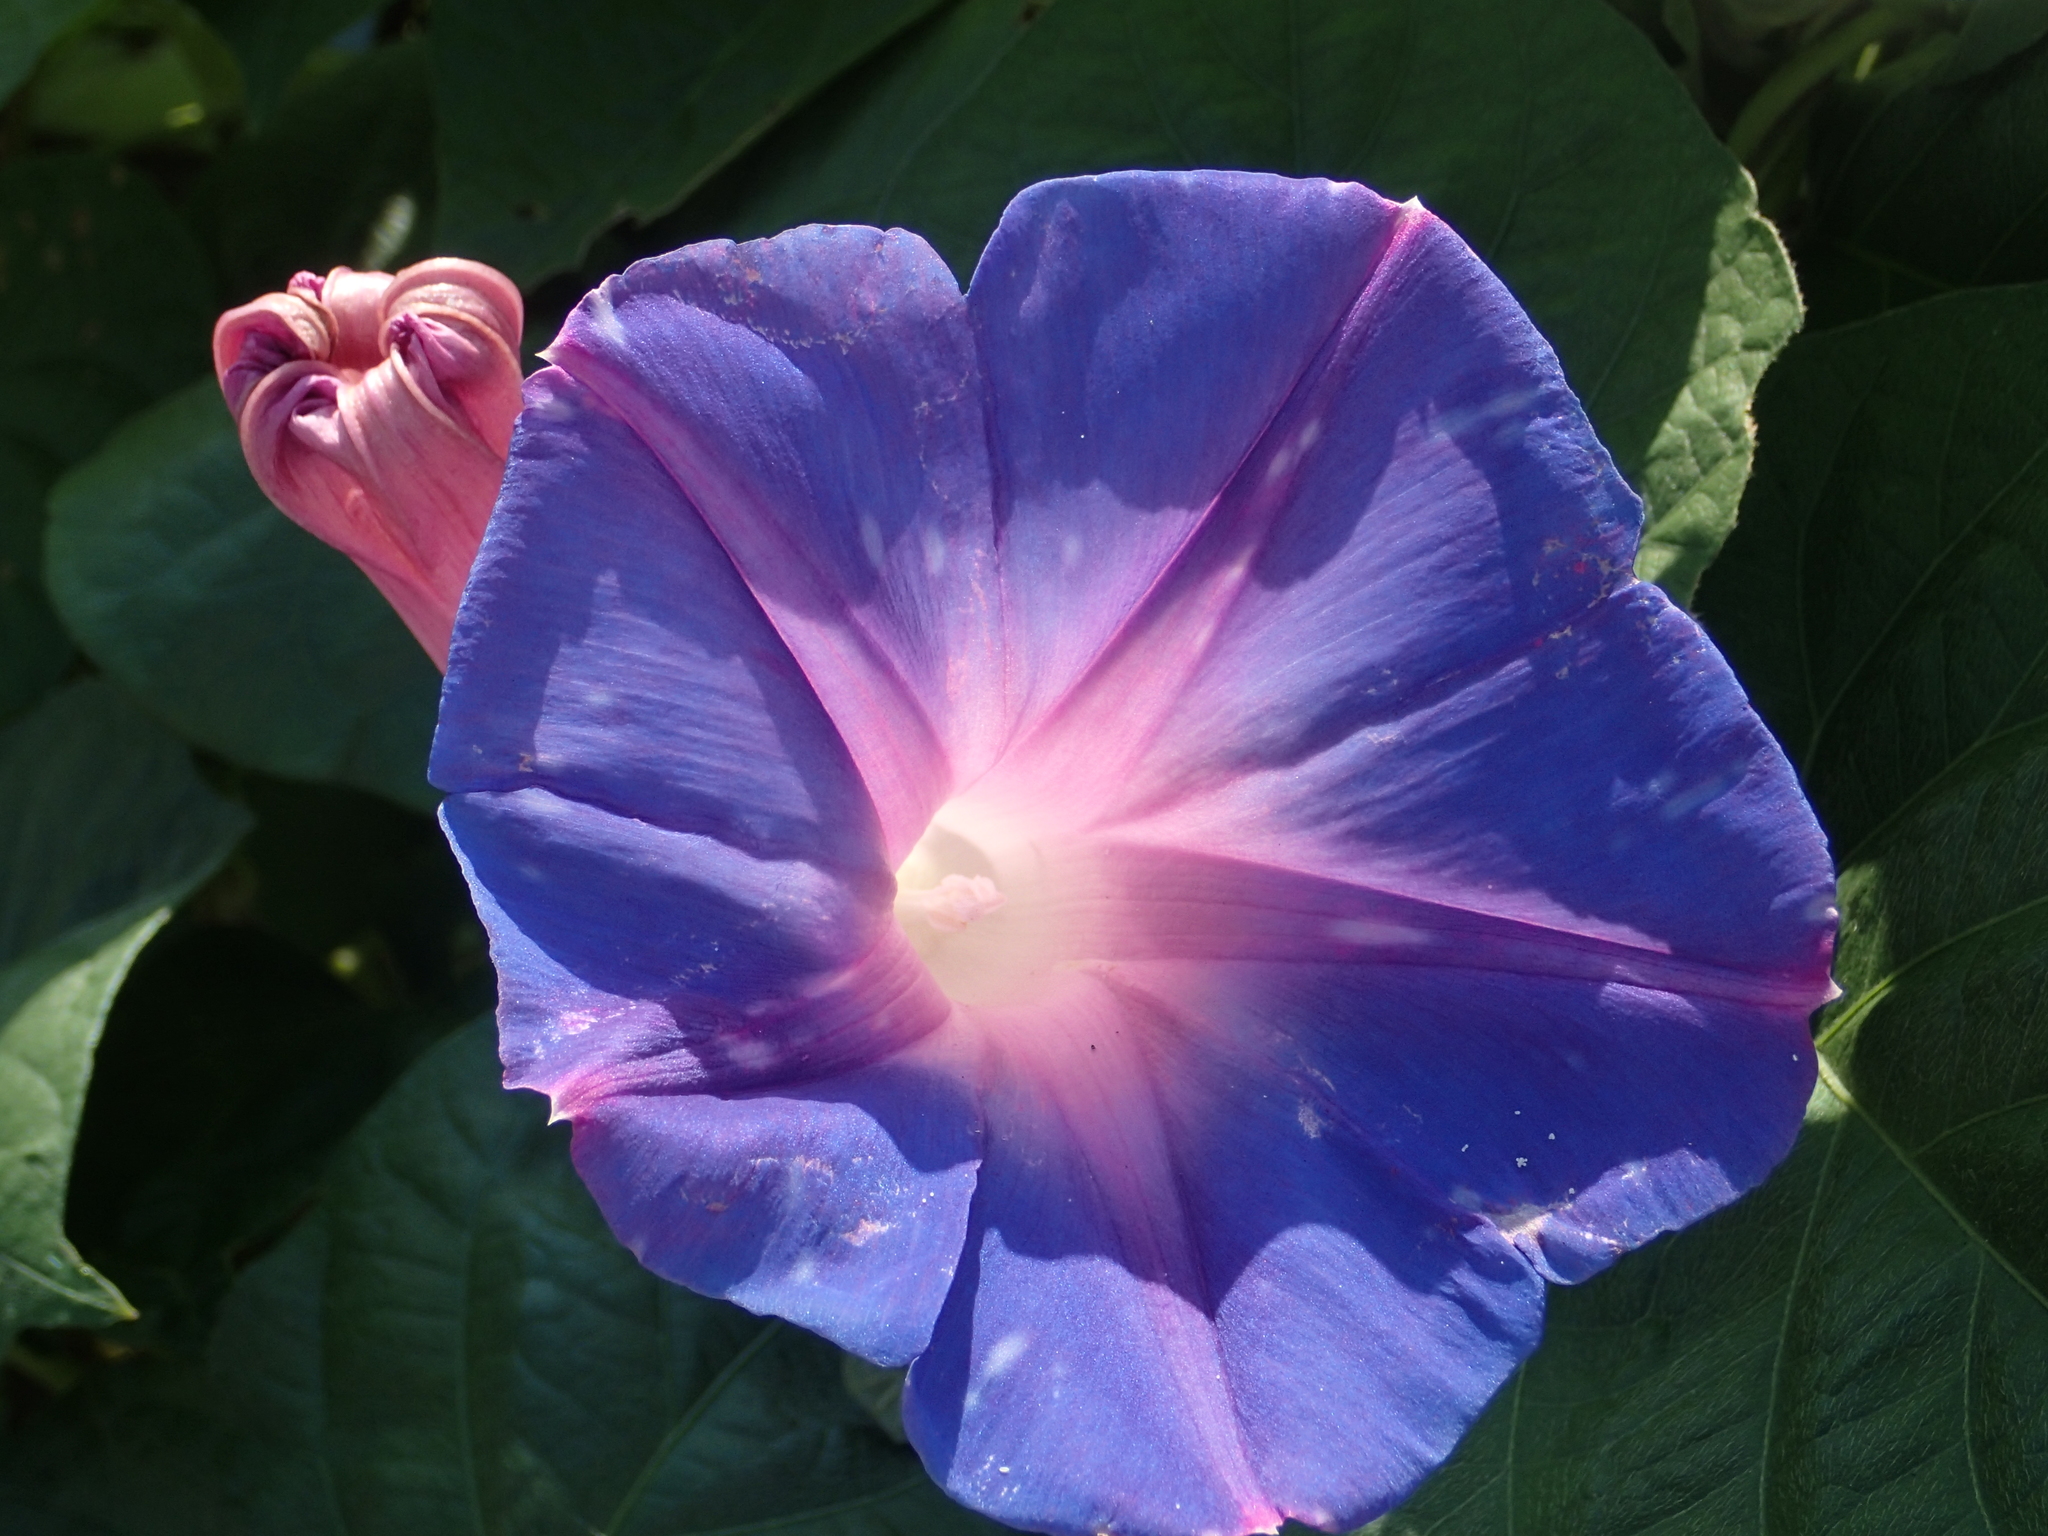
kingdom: Plantae
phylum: Tracheophyta
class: Magnoliopsida
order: Solanales
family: Convolvulaceae
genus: Ipomoea
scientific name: Ipomoea indica
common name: Blue dawnflower
